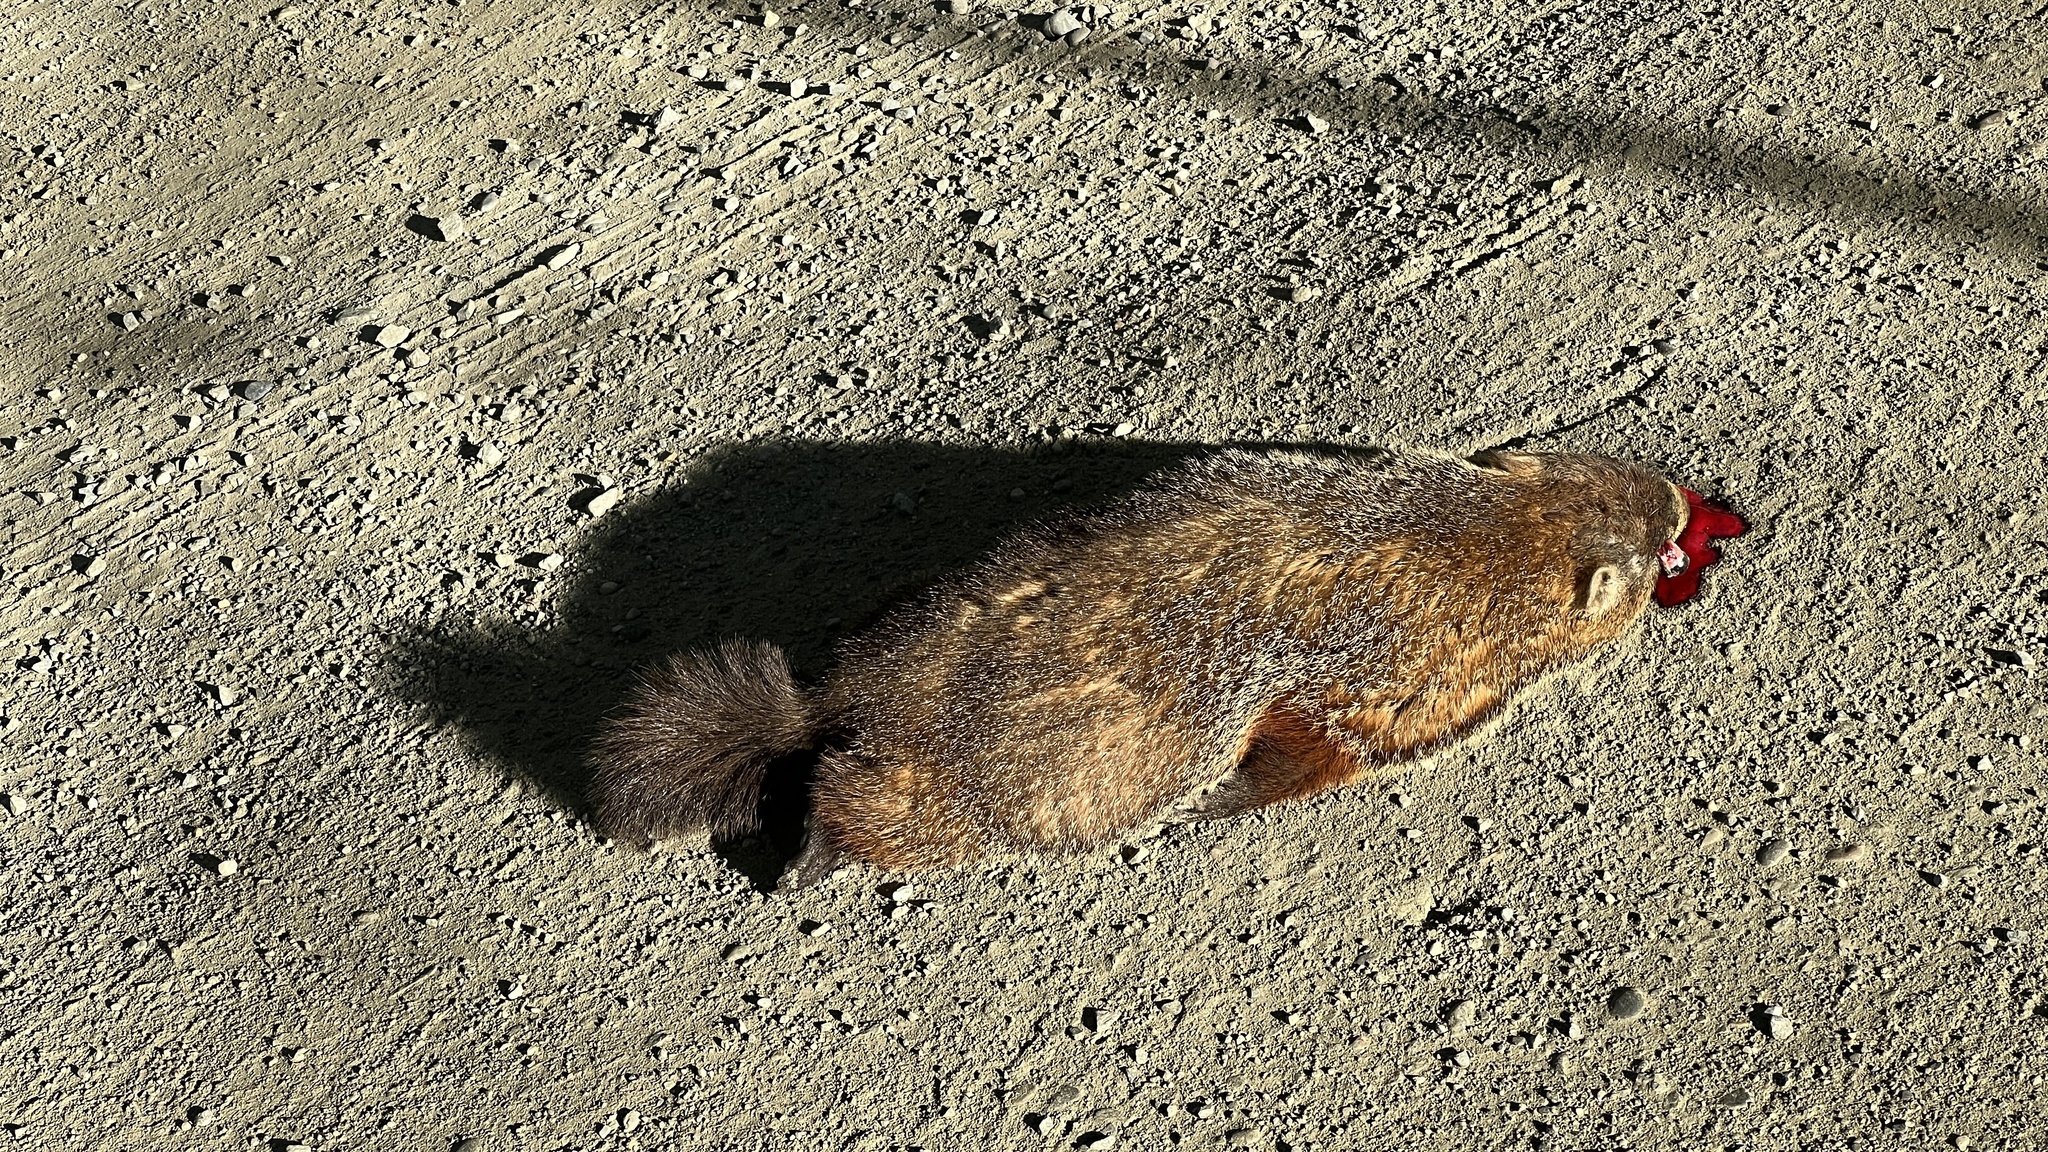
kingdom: Animalia
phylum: Chordata
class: Mammalia
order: Rodentia
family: Sciuridae
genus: Marmota
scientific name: Marmota monax
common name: Groundhog
